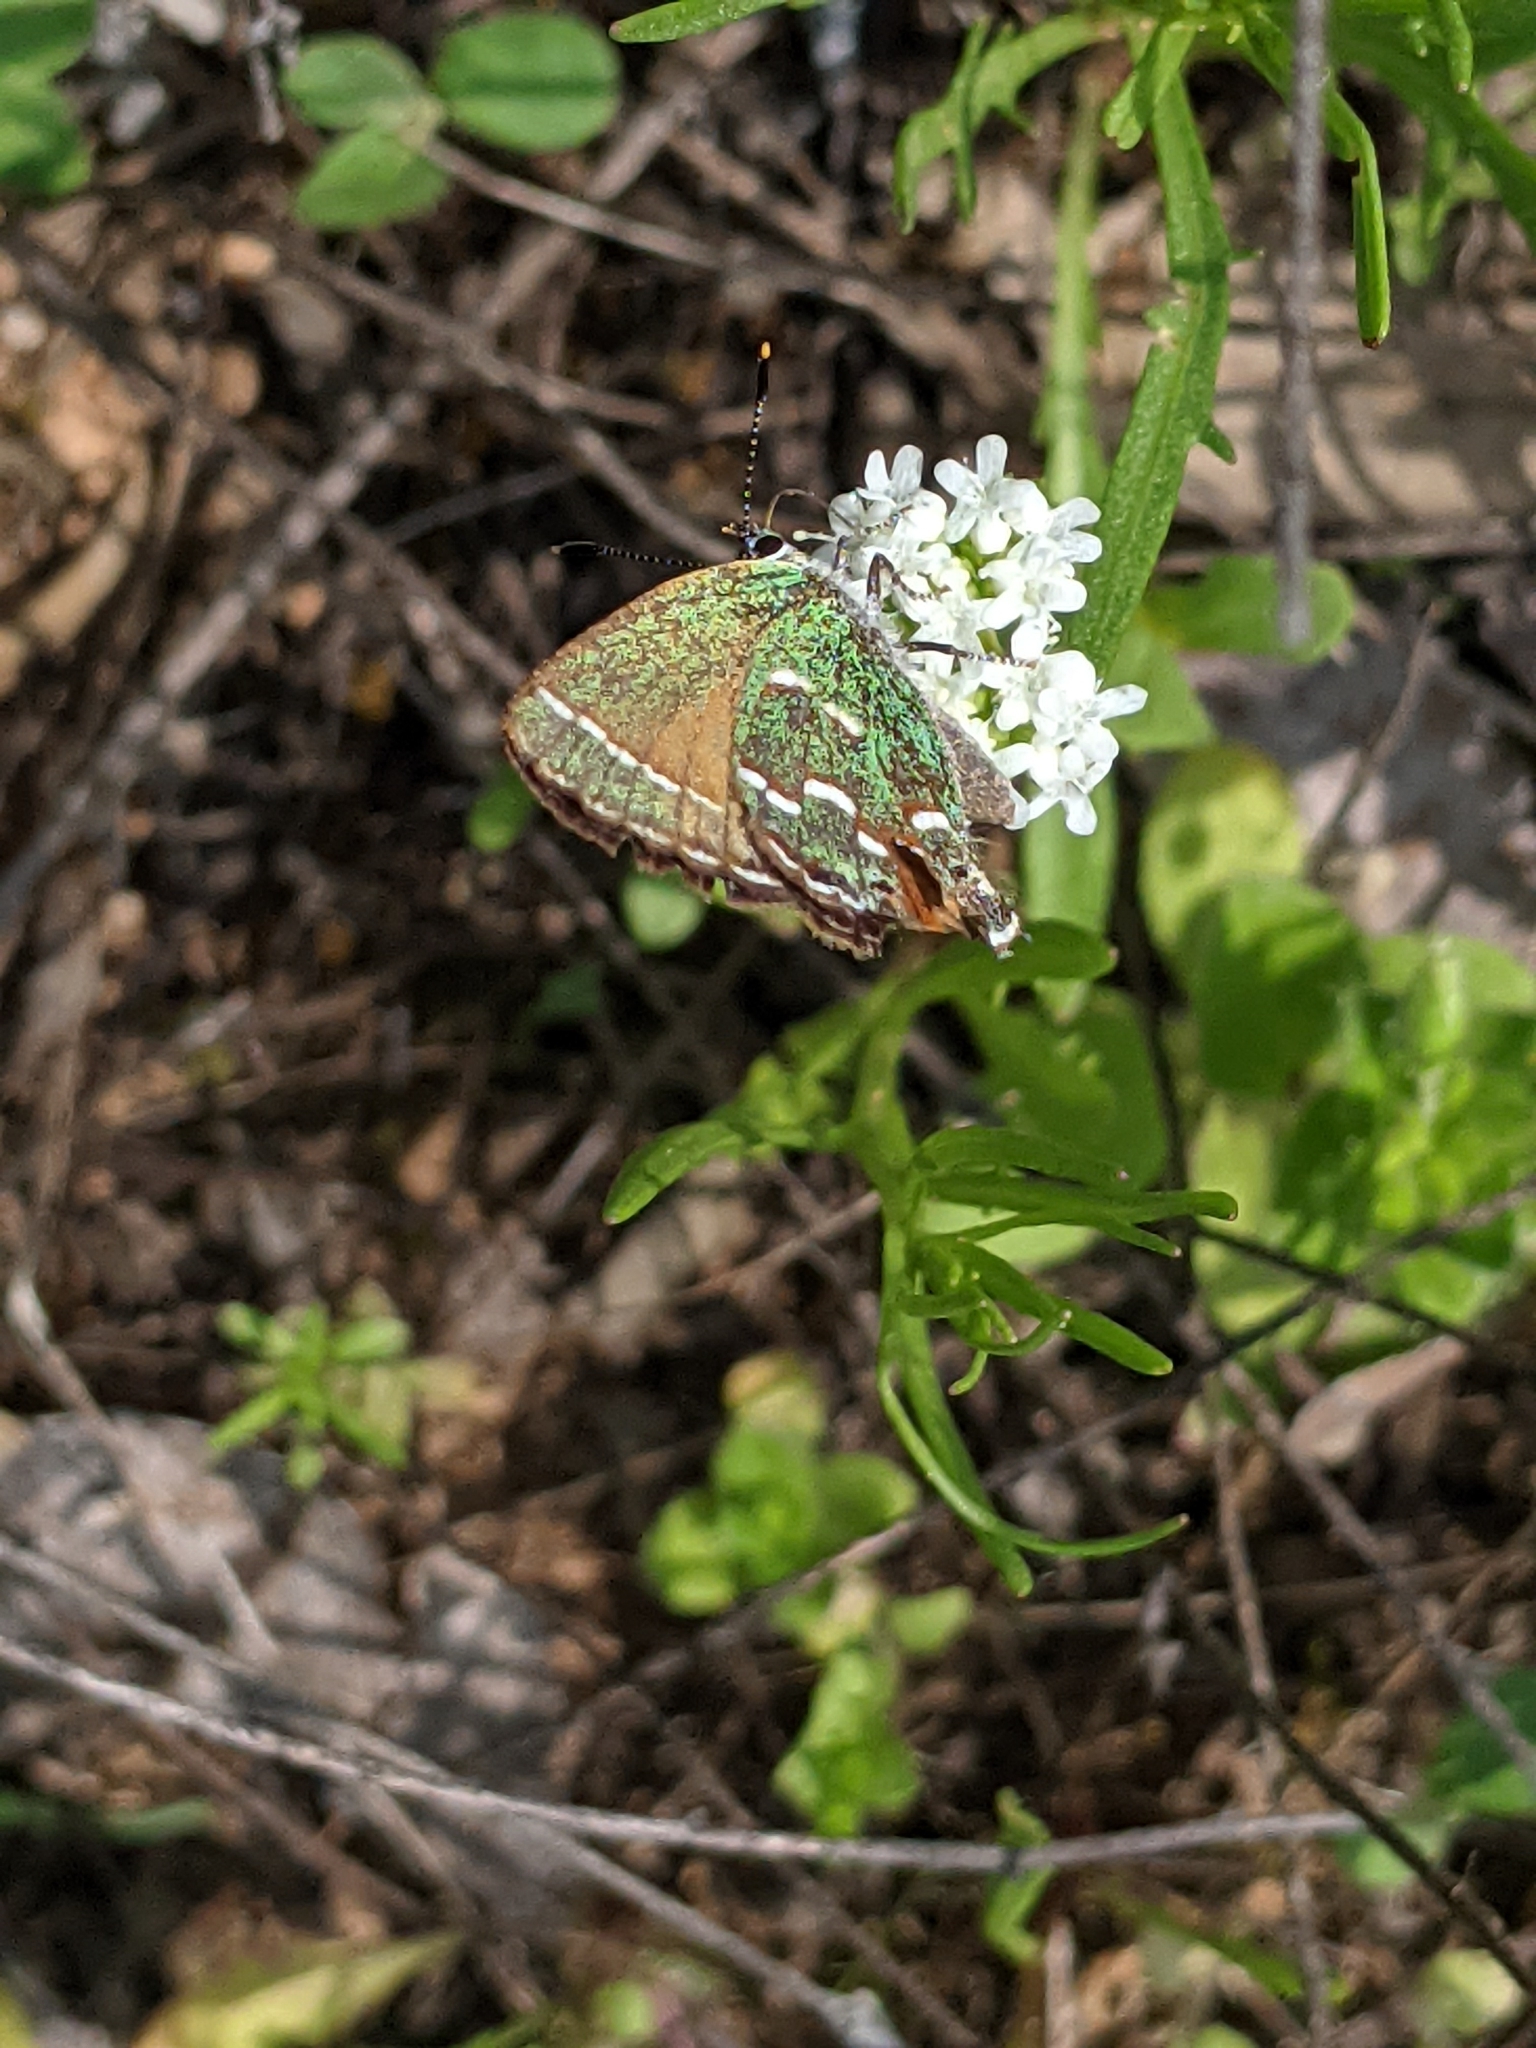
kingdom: Animalia
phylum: Arthropoda
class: Insecta
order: Lepidoptera
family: Lycaenidae
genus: Mitoura
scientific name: Mitoura gryneus
